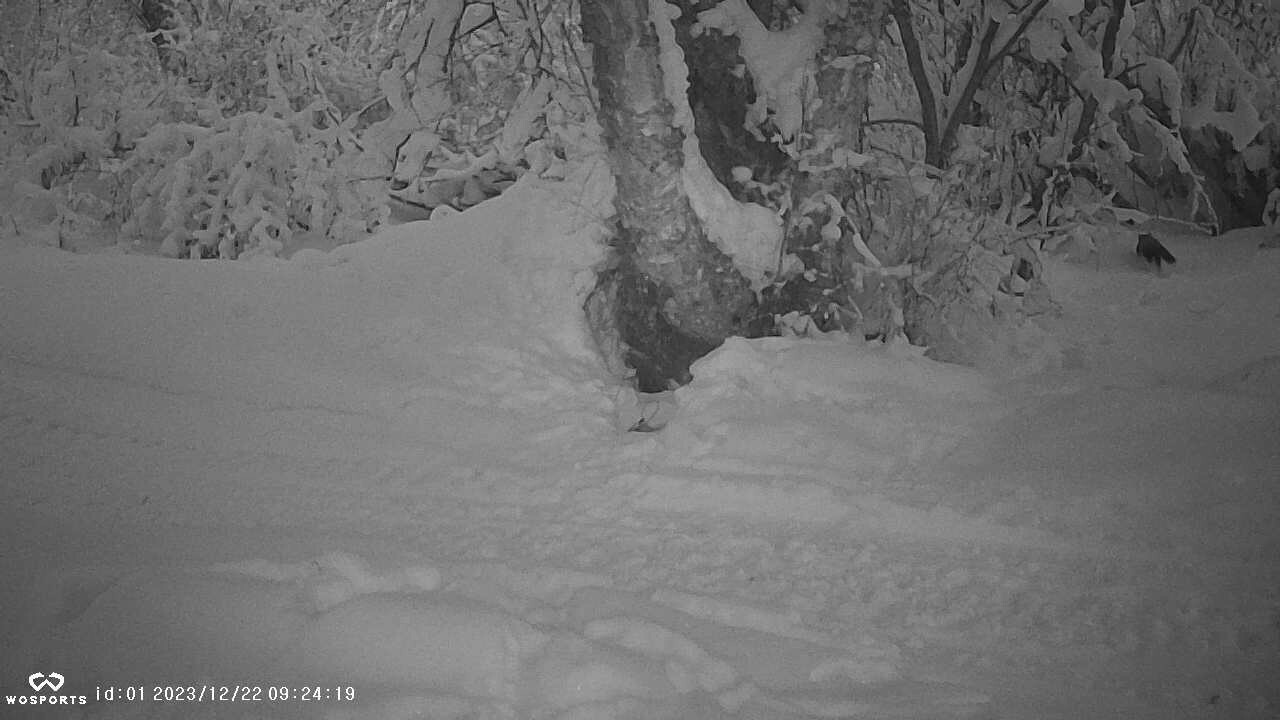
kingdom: Animalia
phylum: Chordata
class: Mammalia
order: Carnivora
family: Mustelidae
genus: Martes
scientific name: Martes americana
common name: American marten
